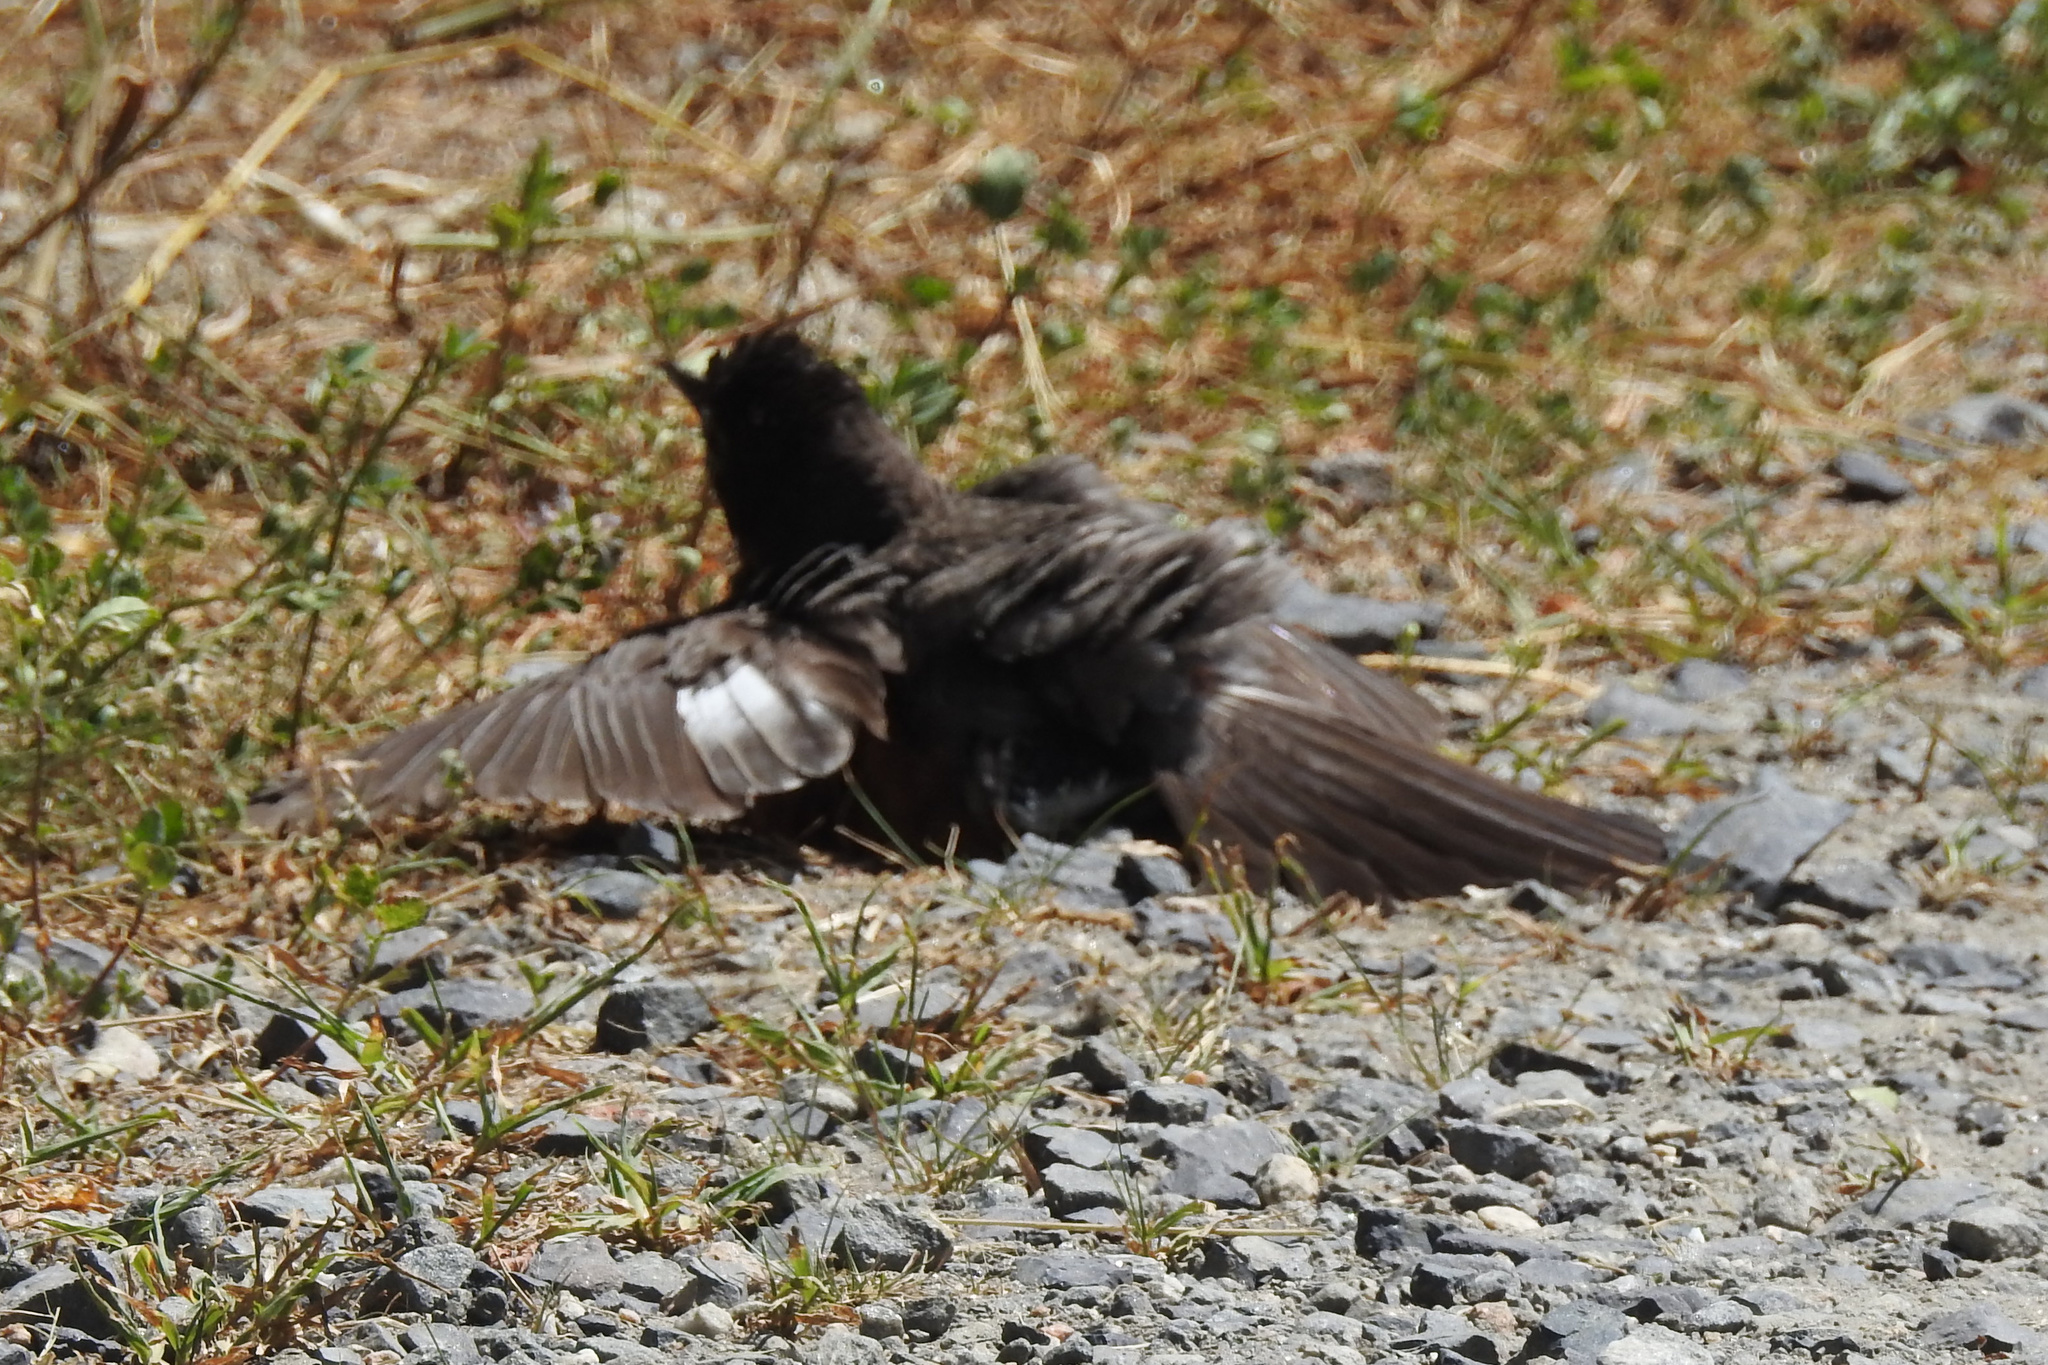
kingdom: Animalia
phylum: Chordata
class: Aves
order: Passeriformes
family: Turdidae
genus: Turdus
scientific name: Turdus migratorius
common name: American robin
